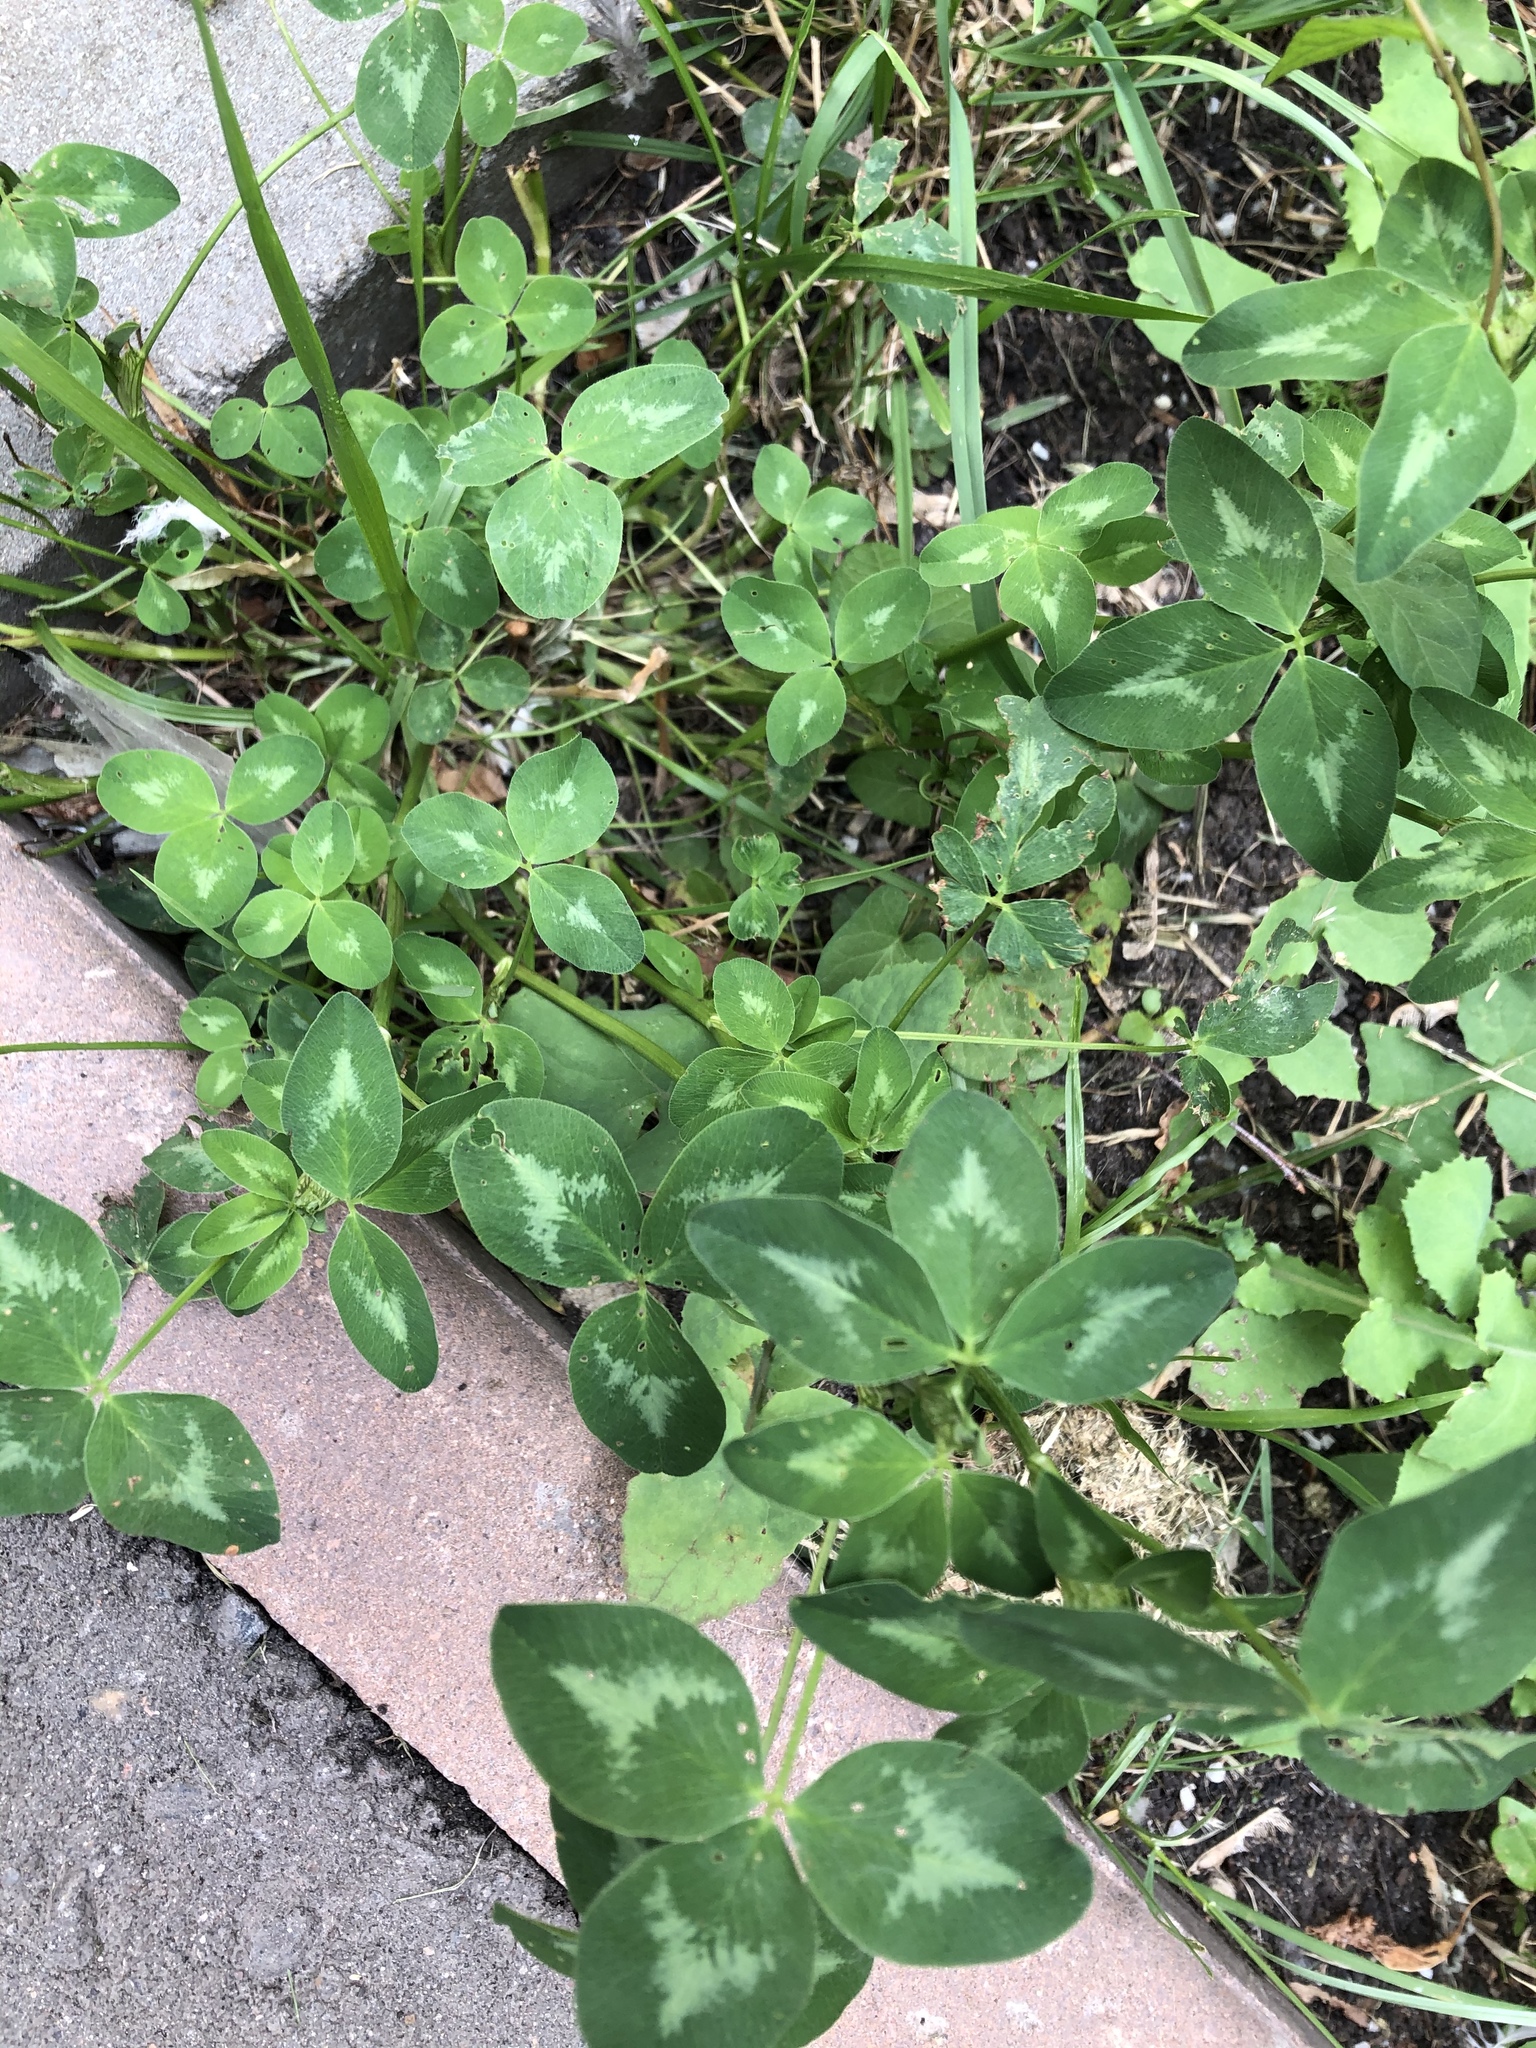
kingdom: Plantae
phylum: Tracheophyta
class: Magnoliopsida
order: Fabales
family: Fabaceae
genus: Trifolium
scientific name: Trifolium pratense
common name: Red clover
